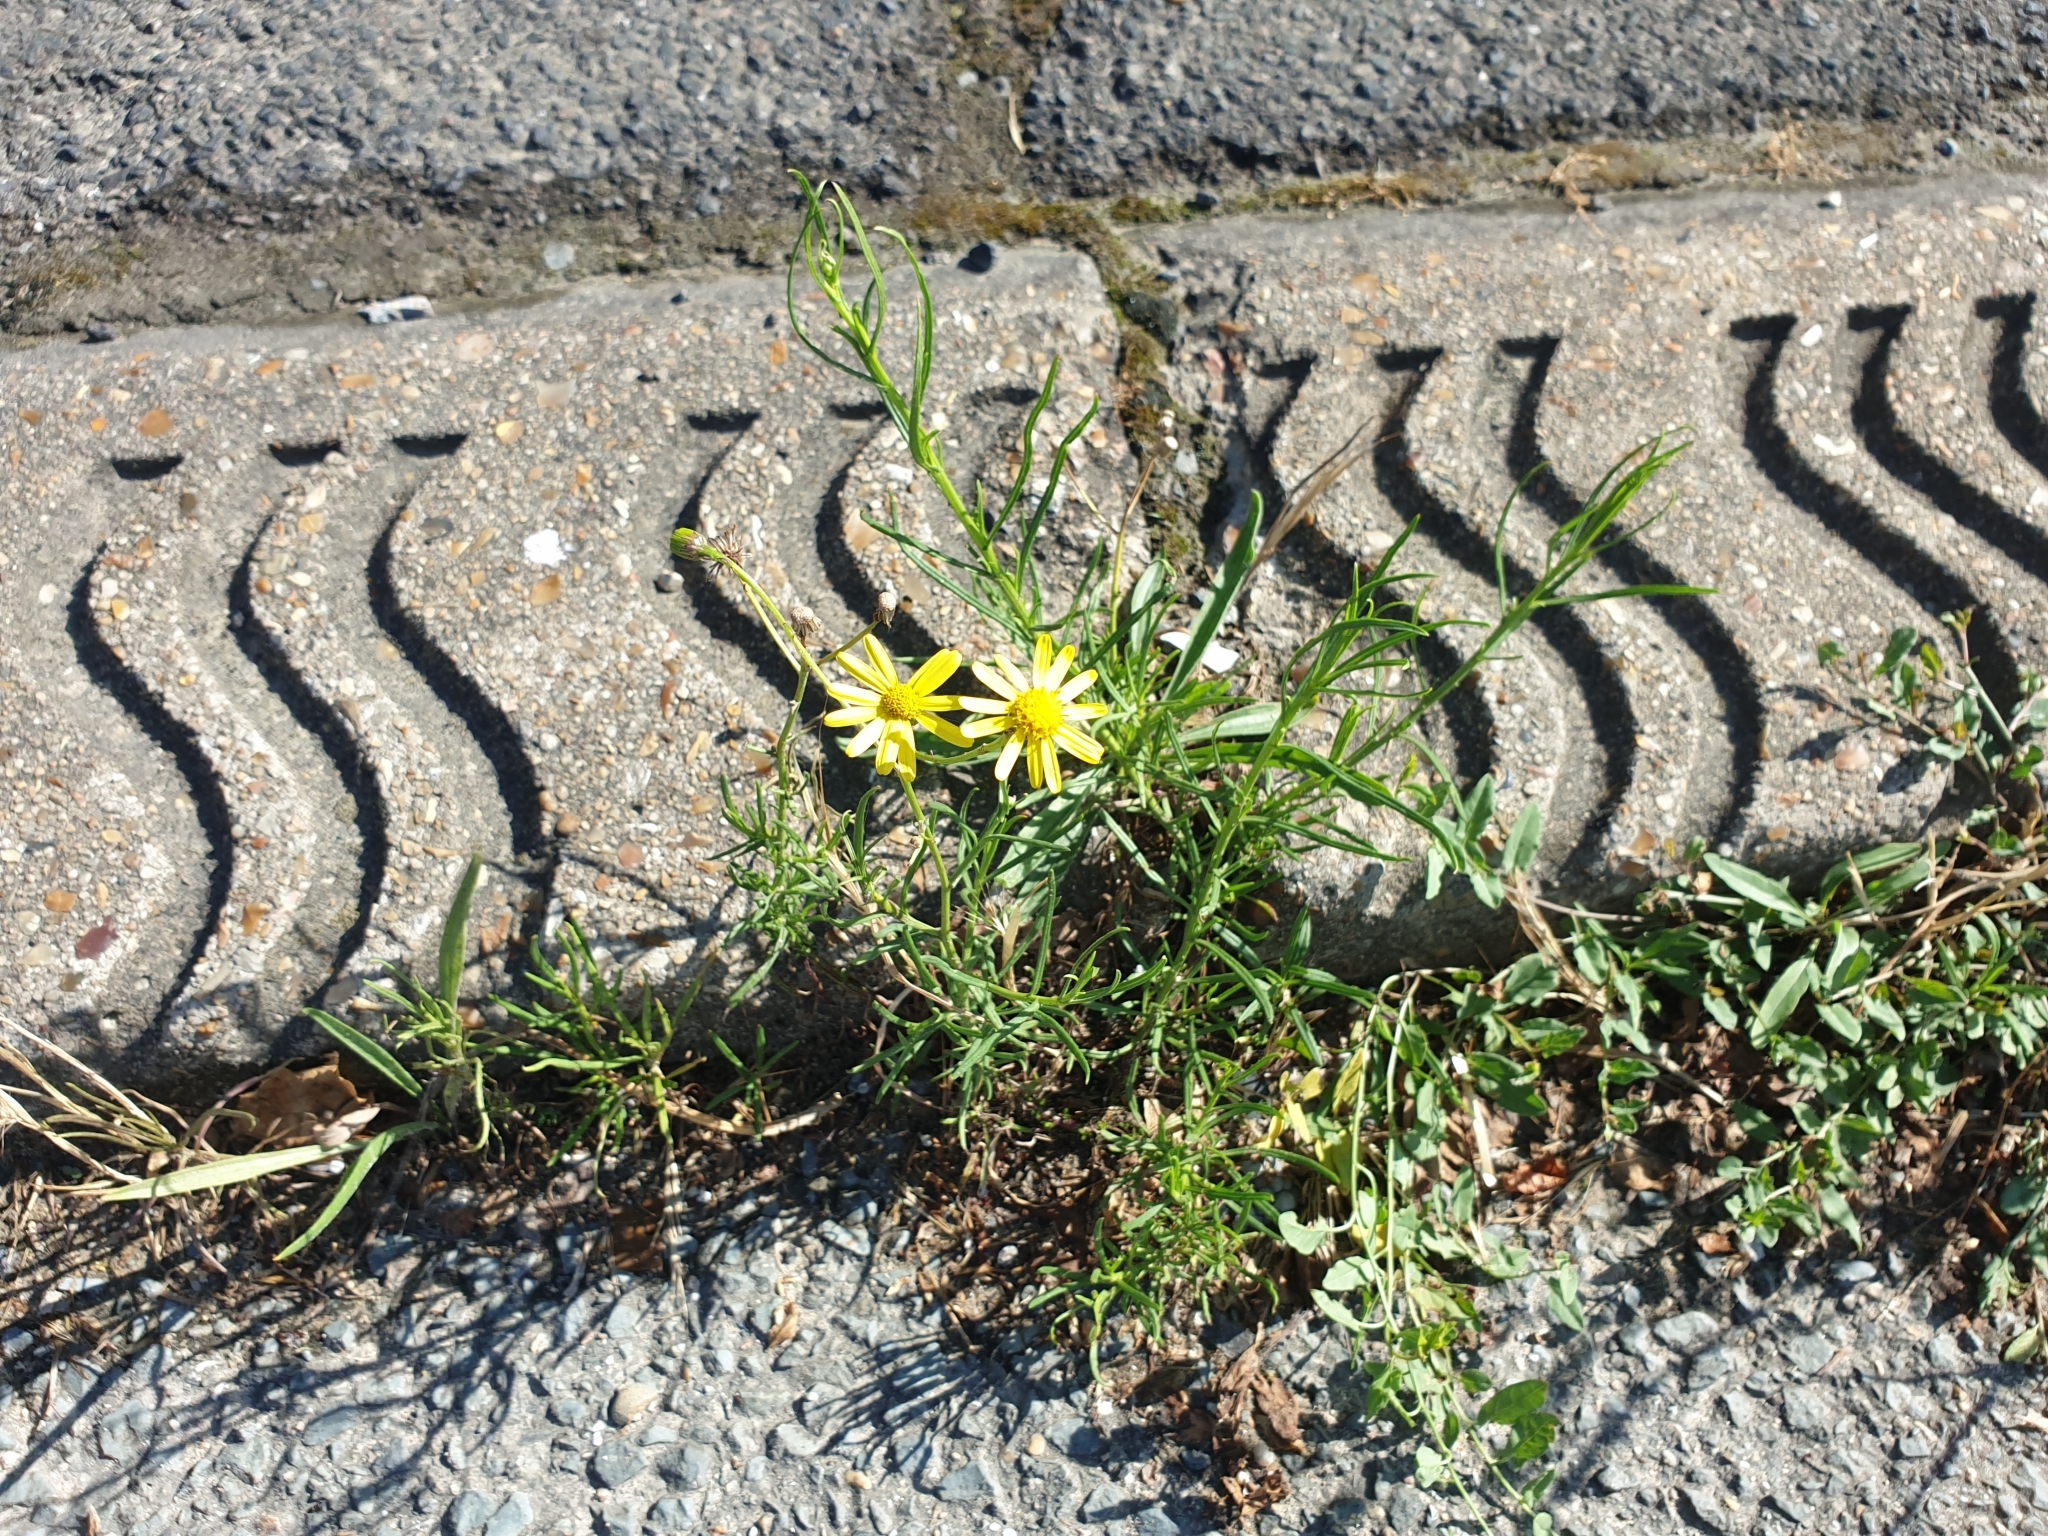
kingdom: Plantae
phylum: Tracheophyta
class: Magnoliopsida
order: Asterales
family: Asteraceae
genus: Senecio
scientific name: Senecio inaequidens
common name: Narrow-leaved ragwort
